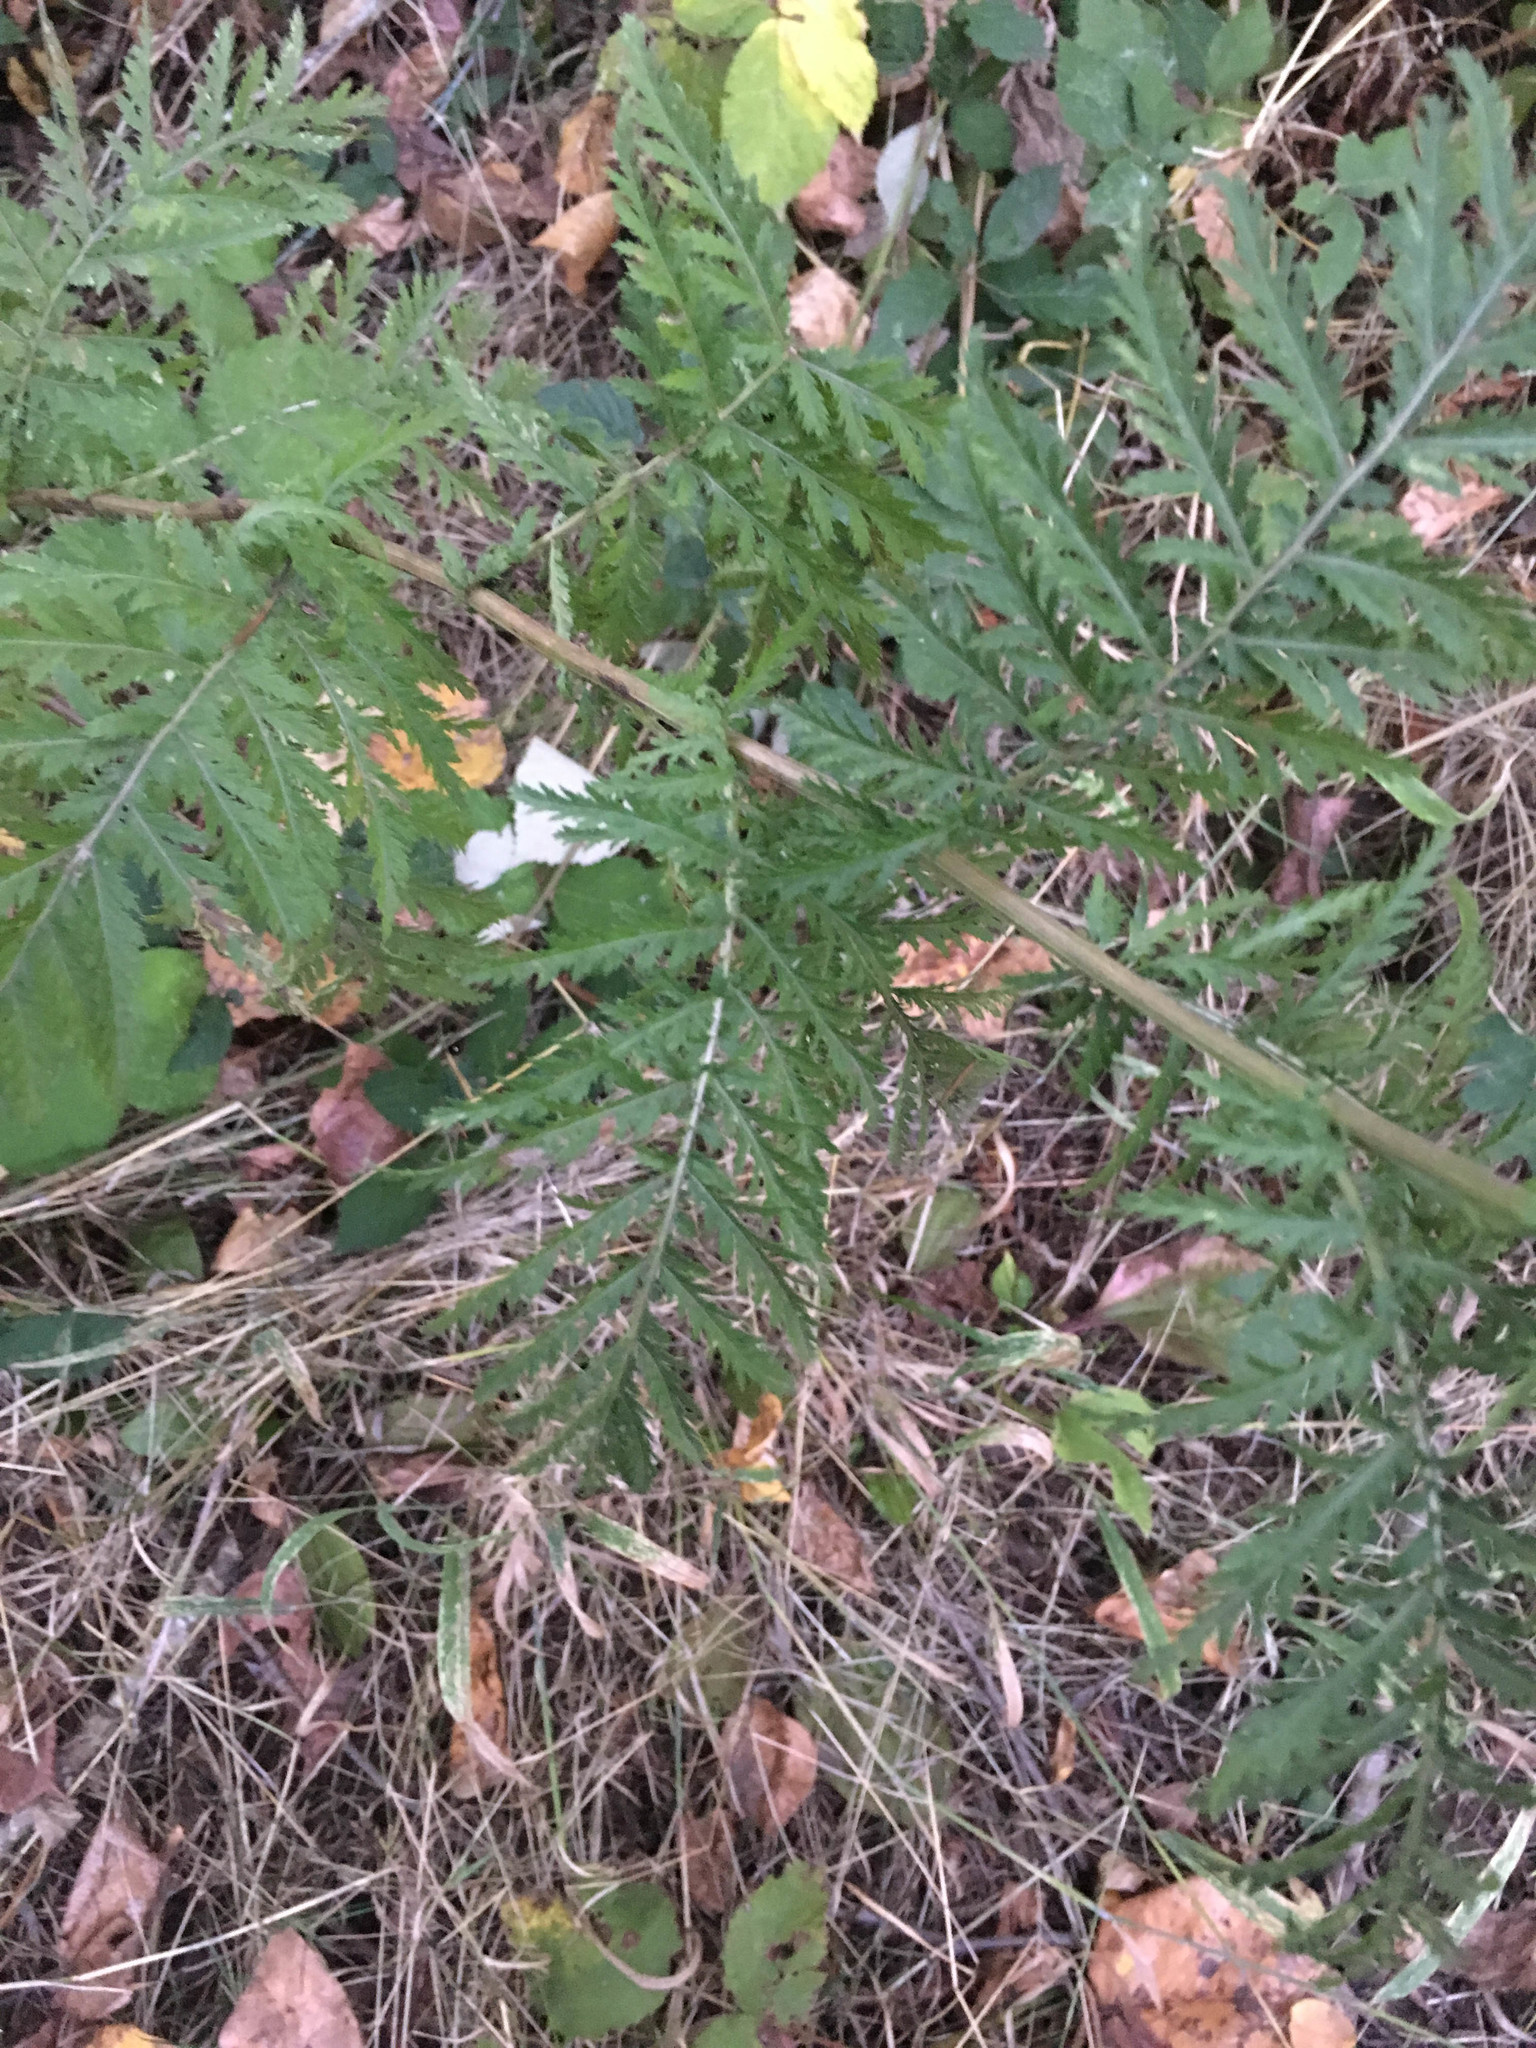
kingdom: Plantae
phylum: Tracheophyta
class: Magnoliopsida
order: Asterales
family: Asteraceae
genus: Tanacetum
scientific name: Tanacetum vulgare
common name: Common tansy
